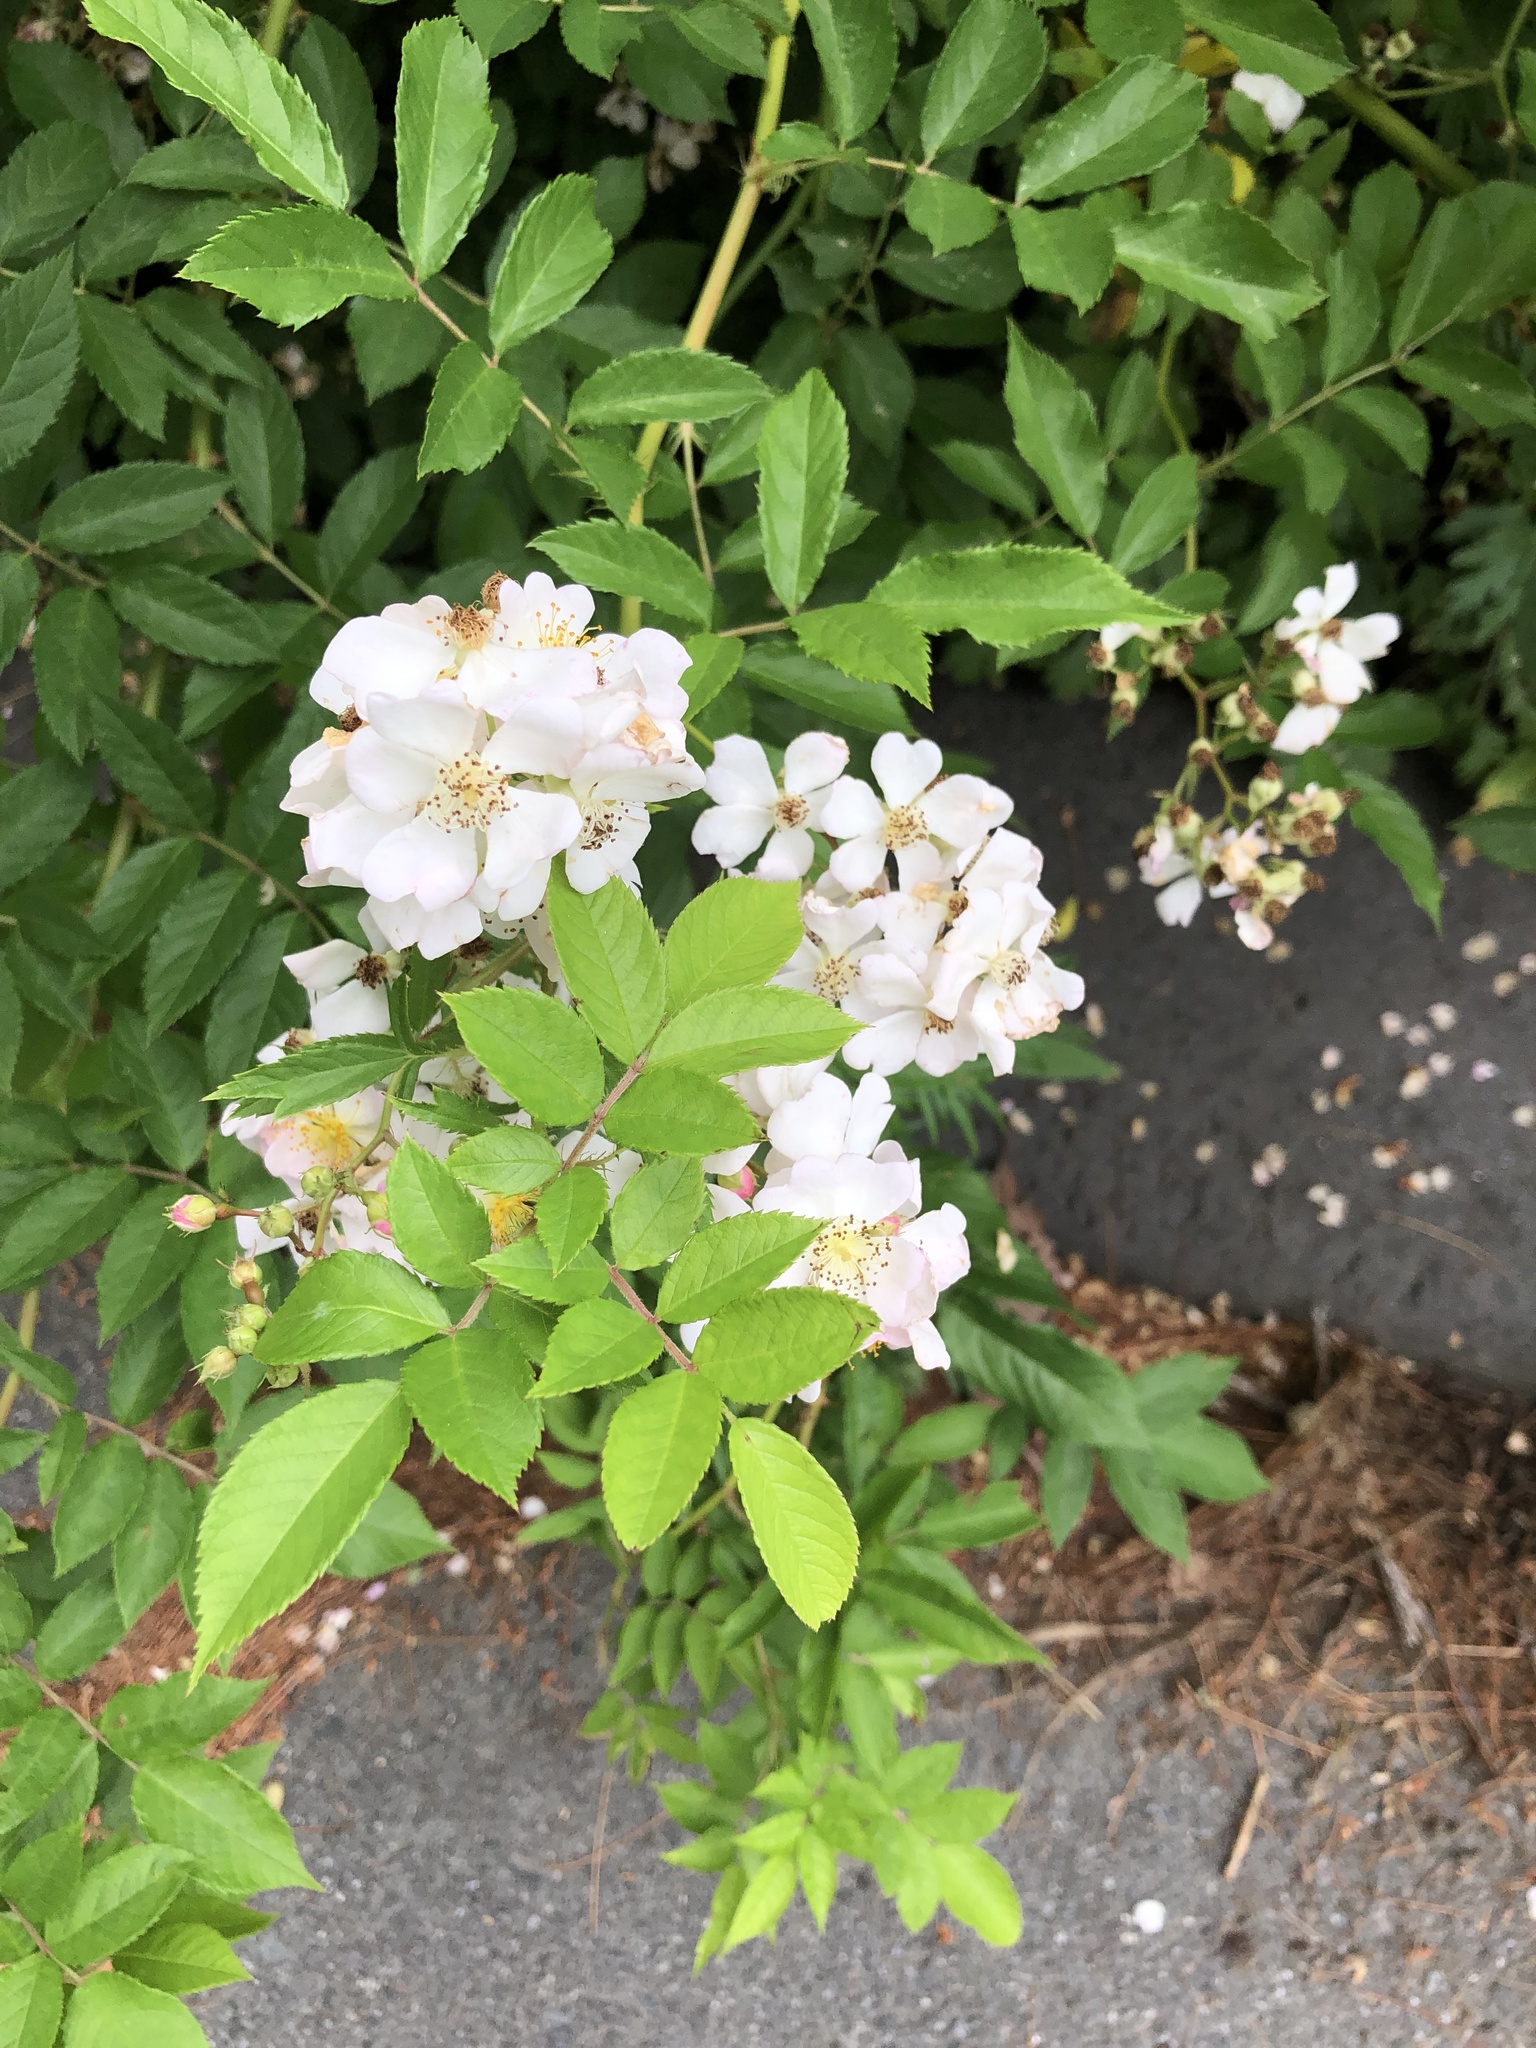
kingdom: Plantae
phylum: Tracheophyta
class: Magnoliopsida
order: Rosales
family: Rosaceae
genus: Rosa
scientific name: Rosa multiflora
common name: Multiflora rose
